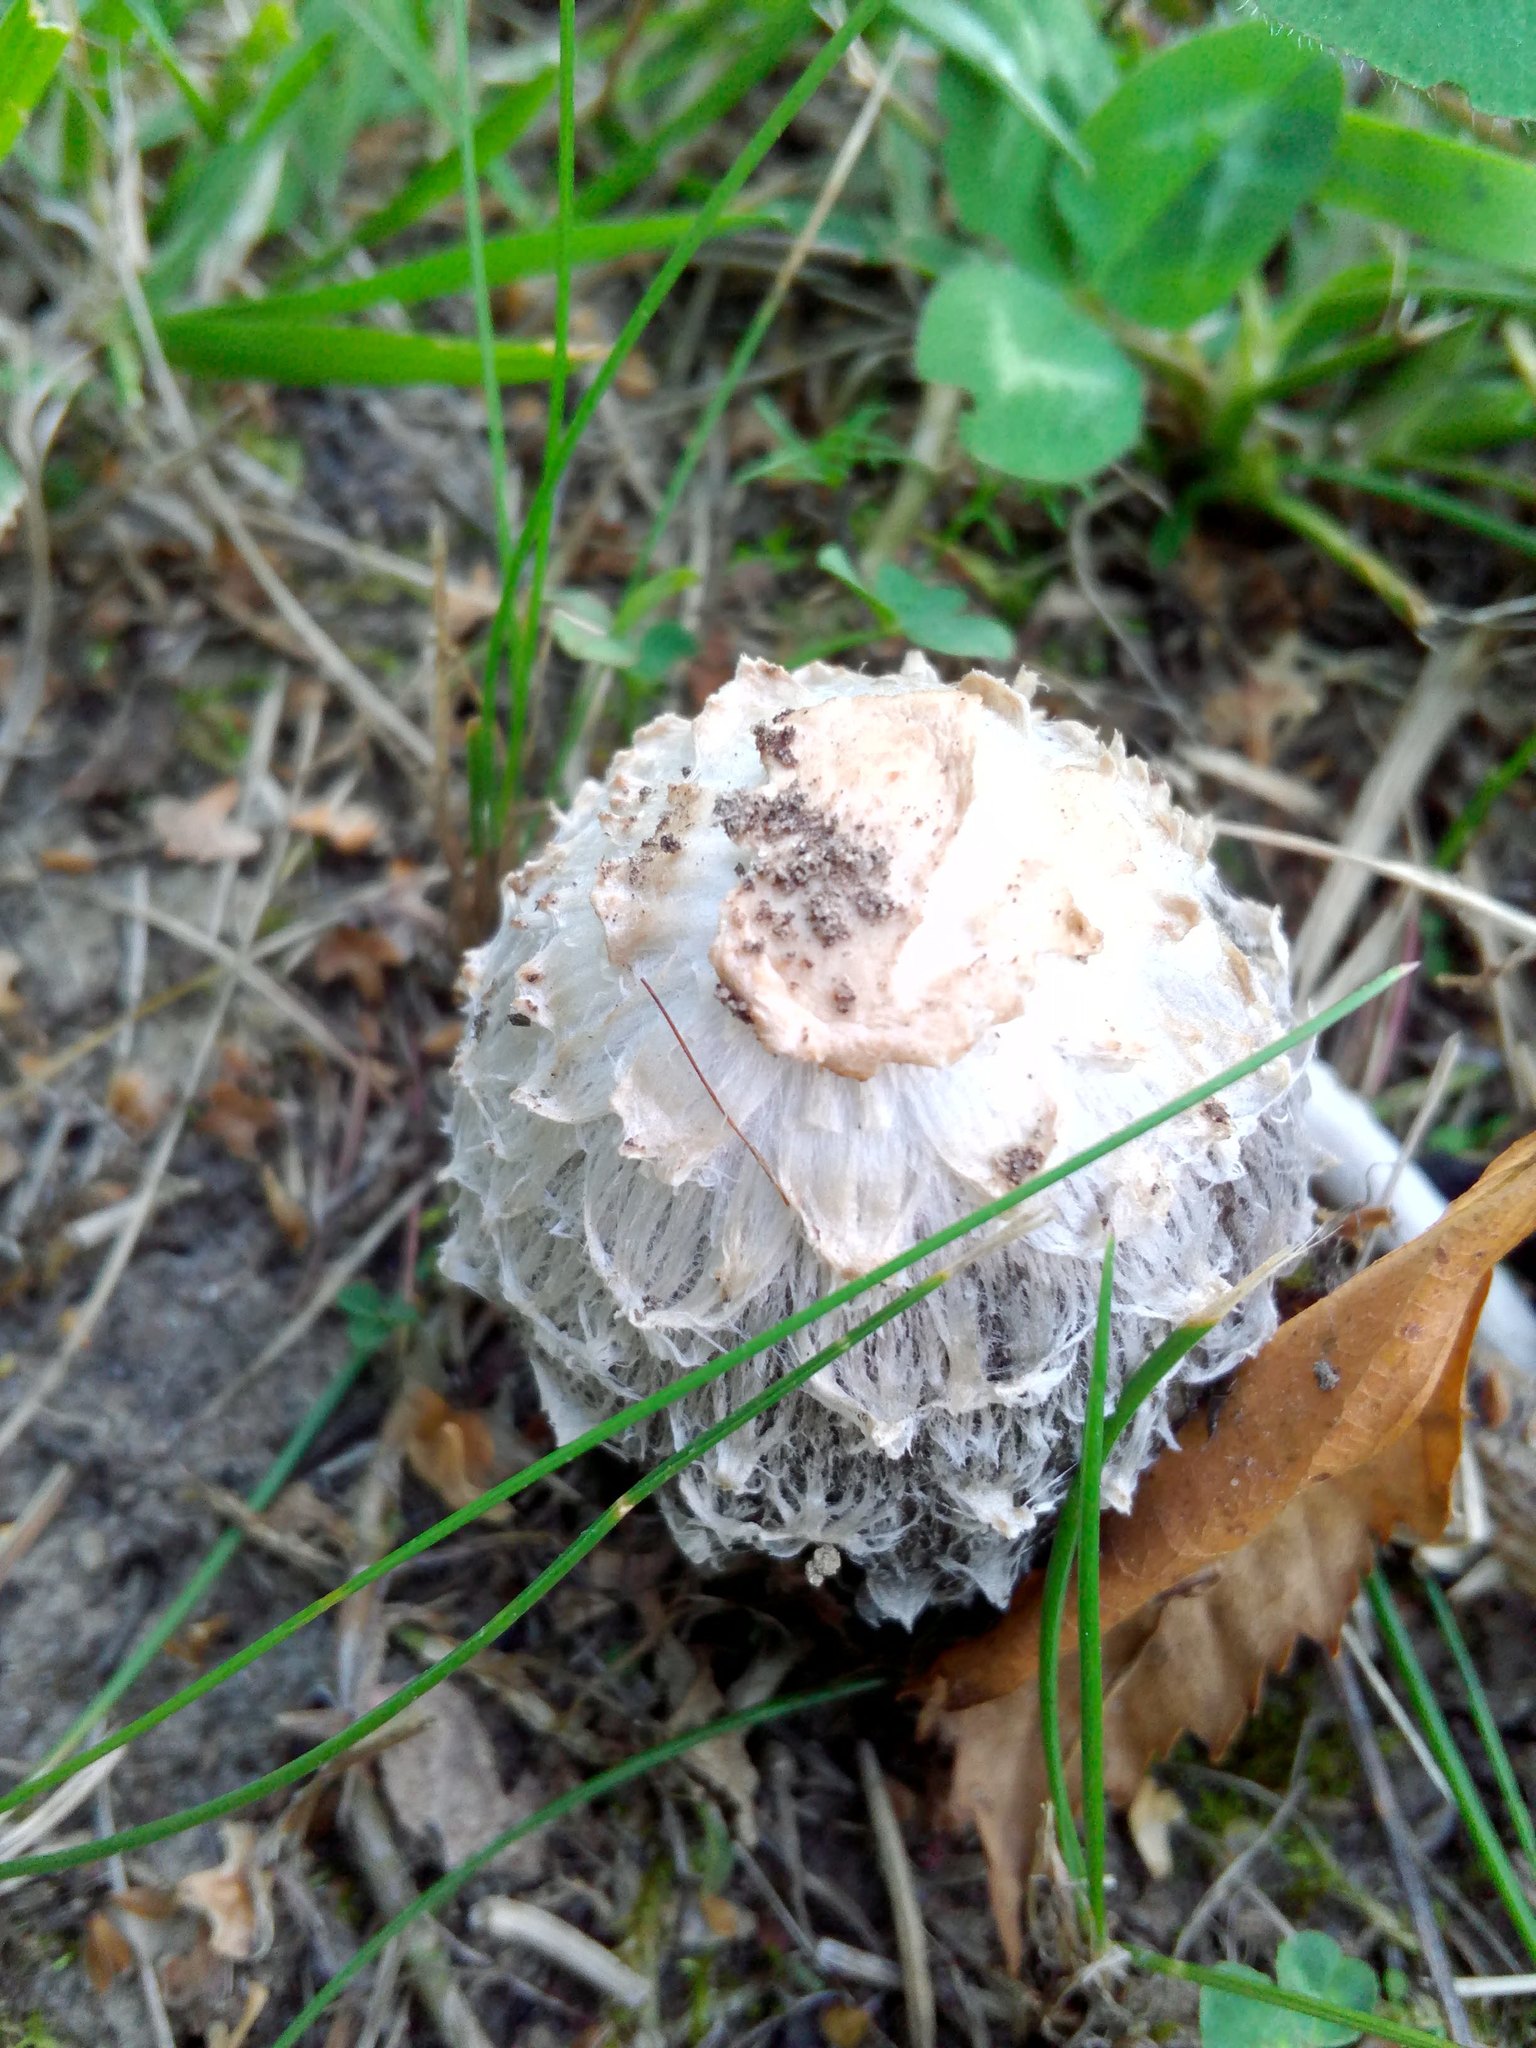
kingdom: Fungi
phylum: Basidiomycota
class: Agaricomycetes
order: Agaricales
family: Agaricaceae
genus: Coprinus
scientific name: Coprinus comatus
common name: Lawyer's wig
